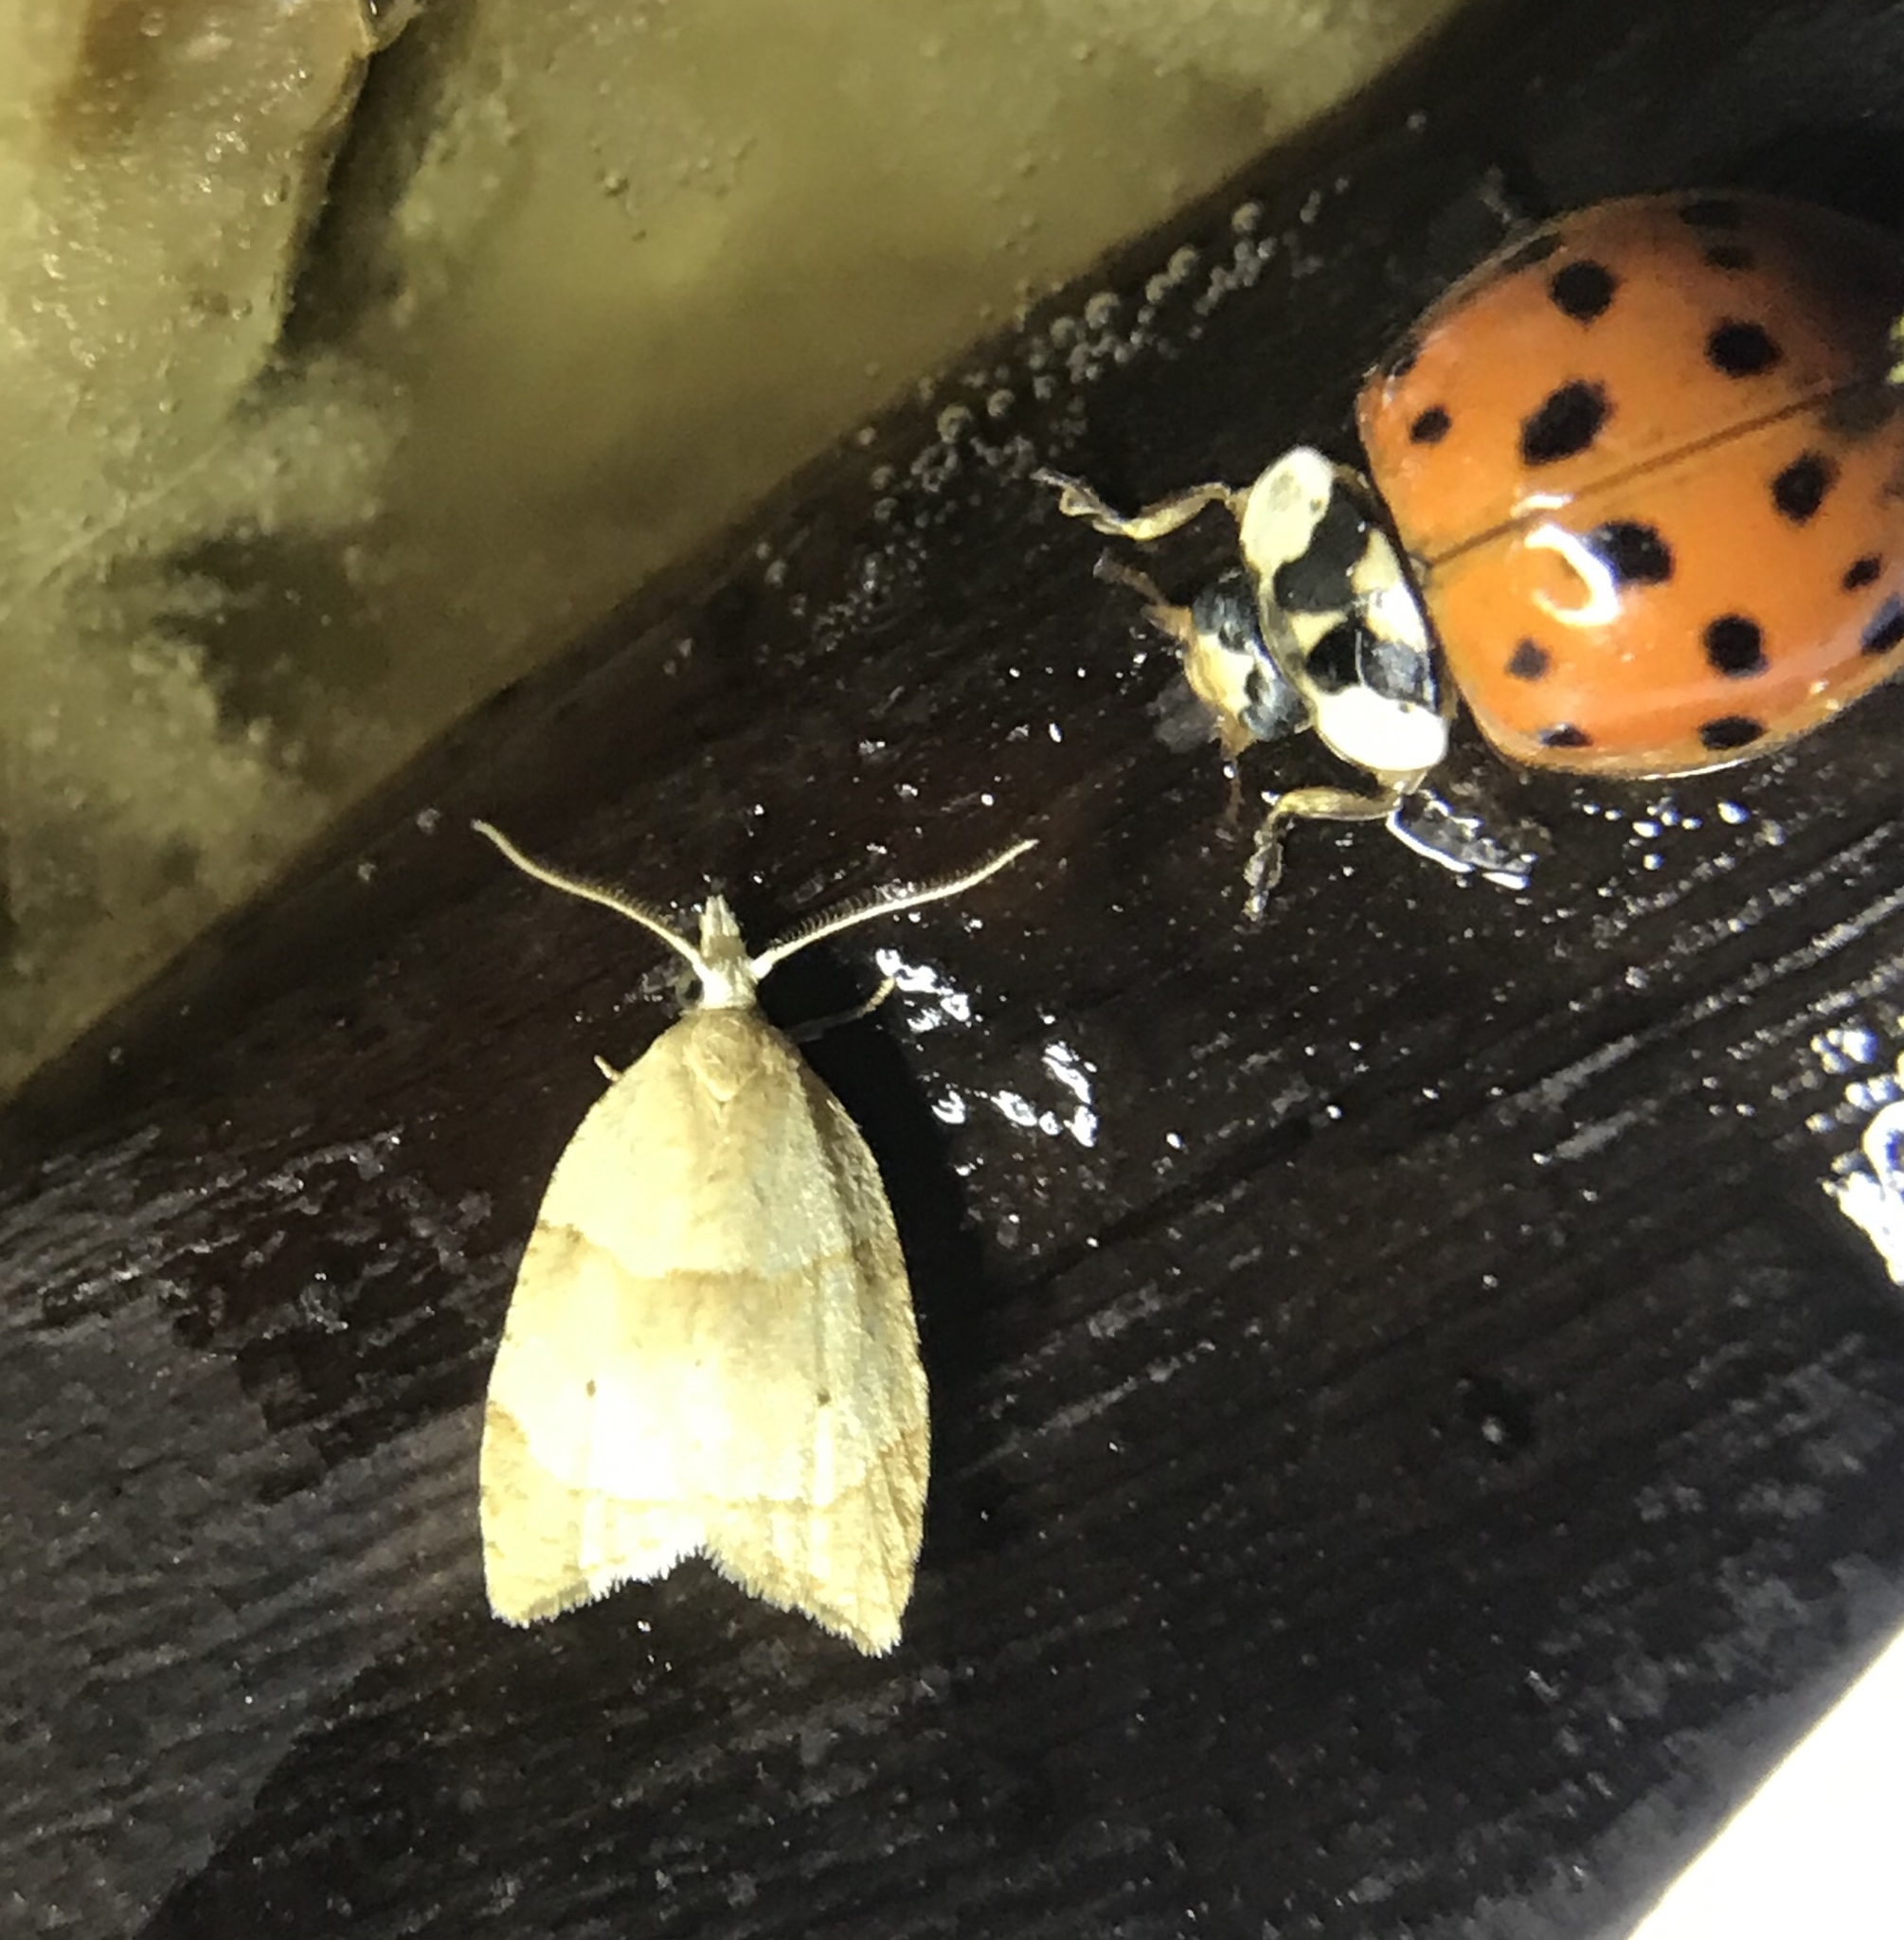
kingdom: Animalia
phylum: Arthropoda
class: Insecta
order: Lepidoptera
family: Tortricidae
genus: Coelostathma
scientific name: Coelostathma discopunctana
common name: Batman moth
